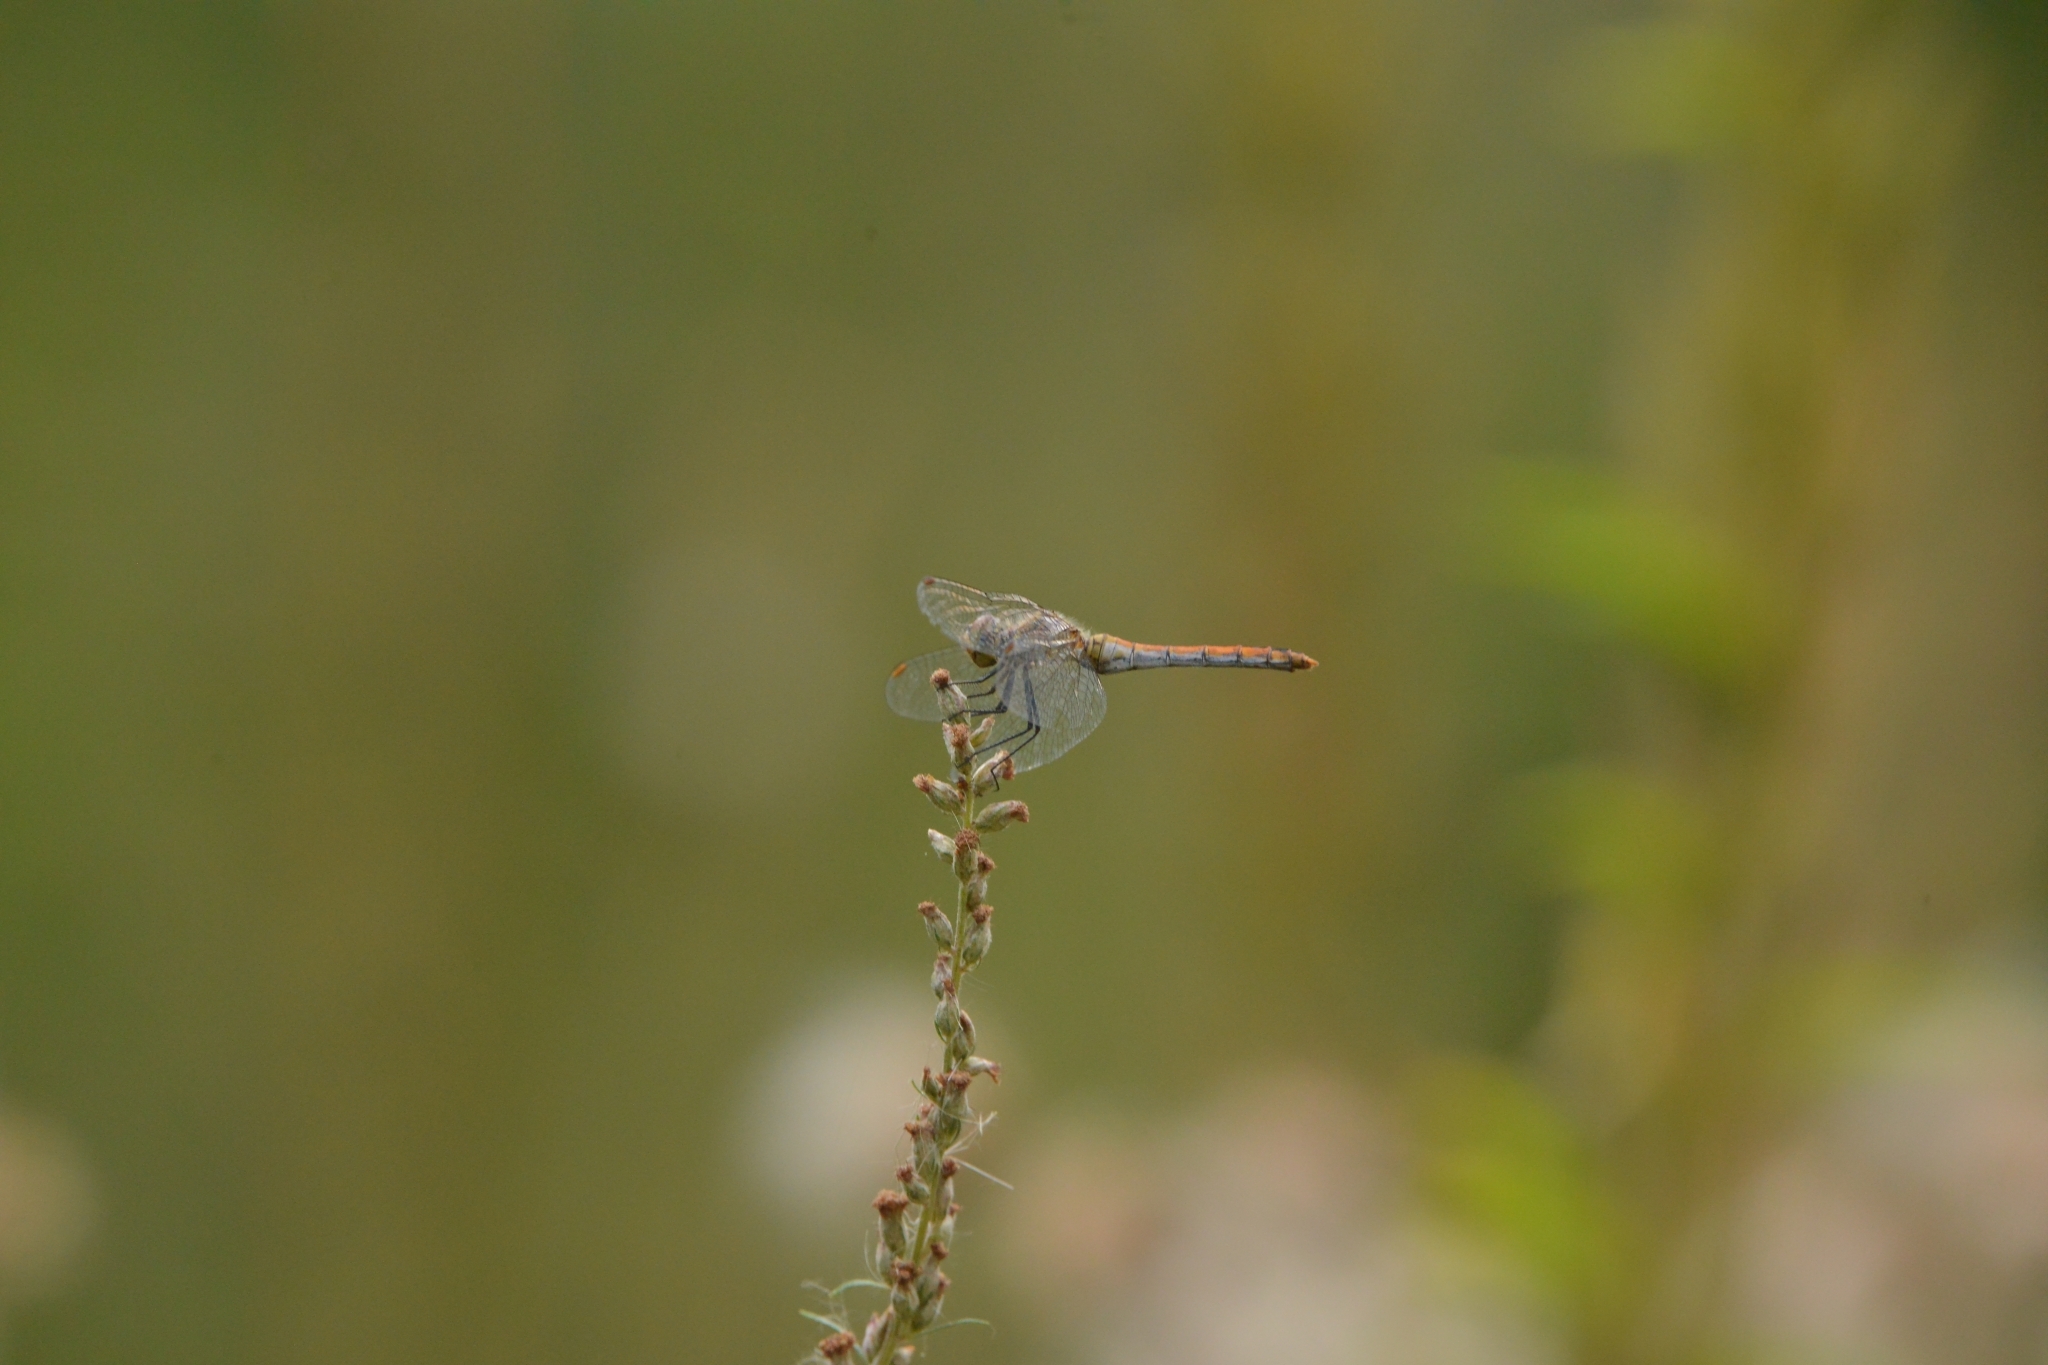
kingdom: Animalia
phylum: Arthropoda
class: Insecta
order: Odonata
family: Libellulidae
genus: Sympetrum
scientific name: Sympetrum sanguineum
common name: Ruddy darter
